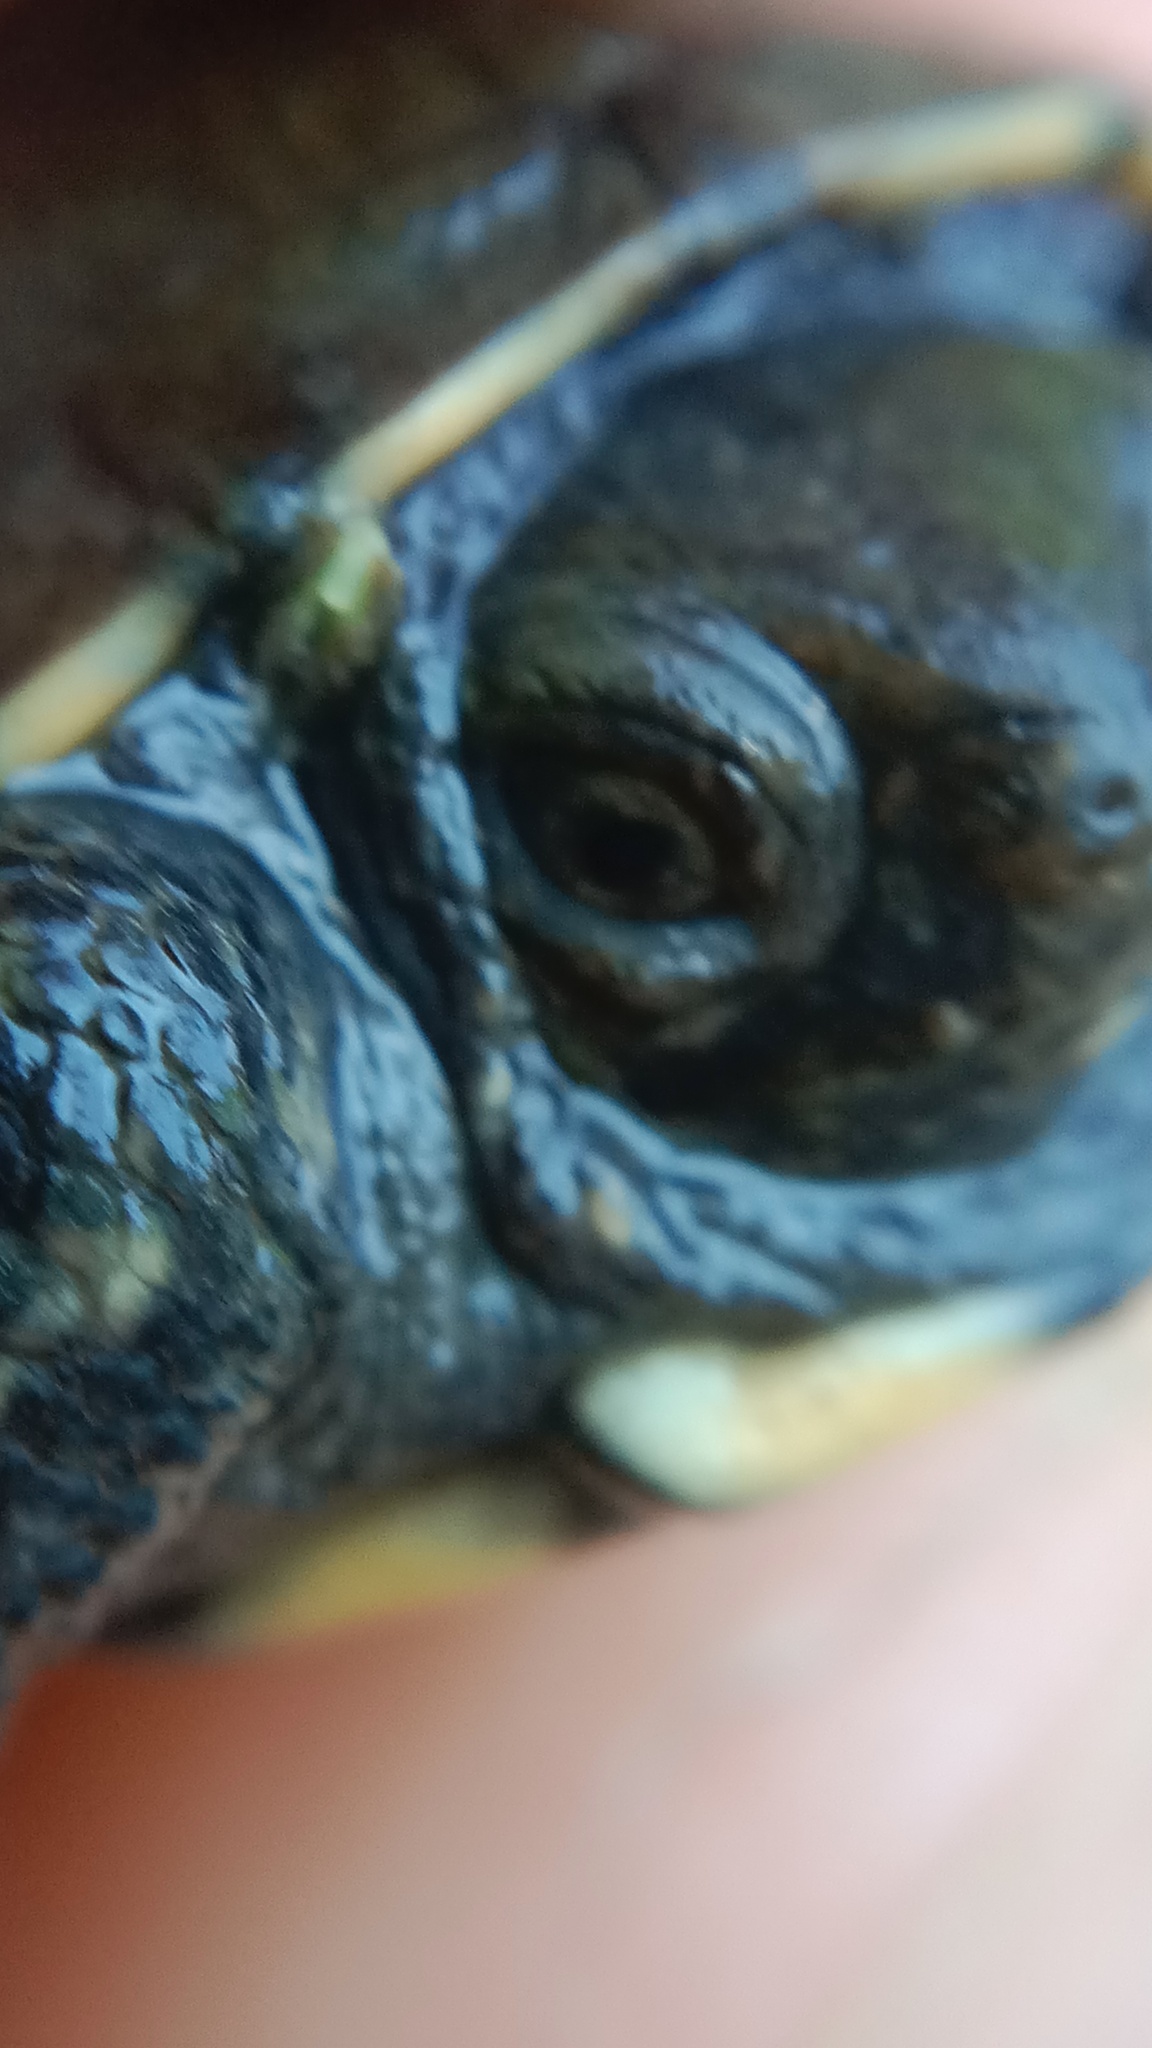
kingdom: Animalia
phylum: Chordata
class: Testudines
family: Emydidae
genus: Emys
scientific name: Emys orbicularis
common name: European pond turtle
